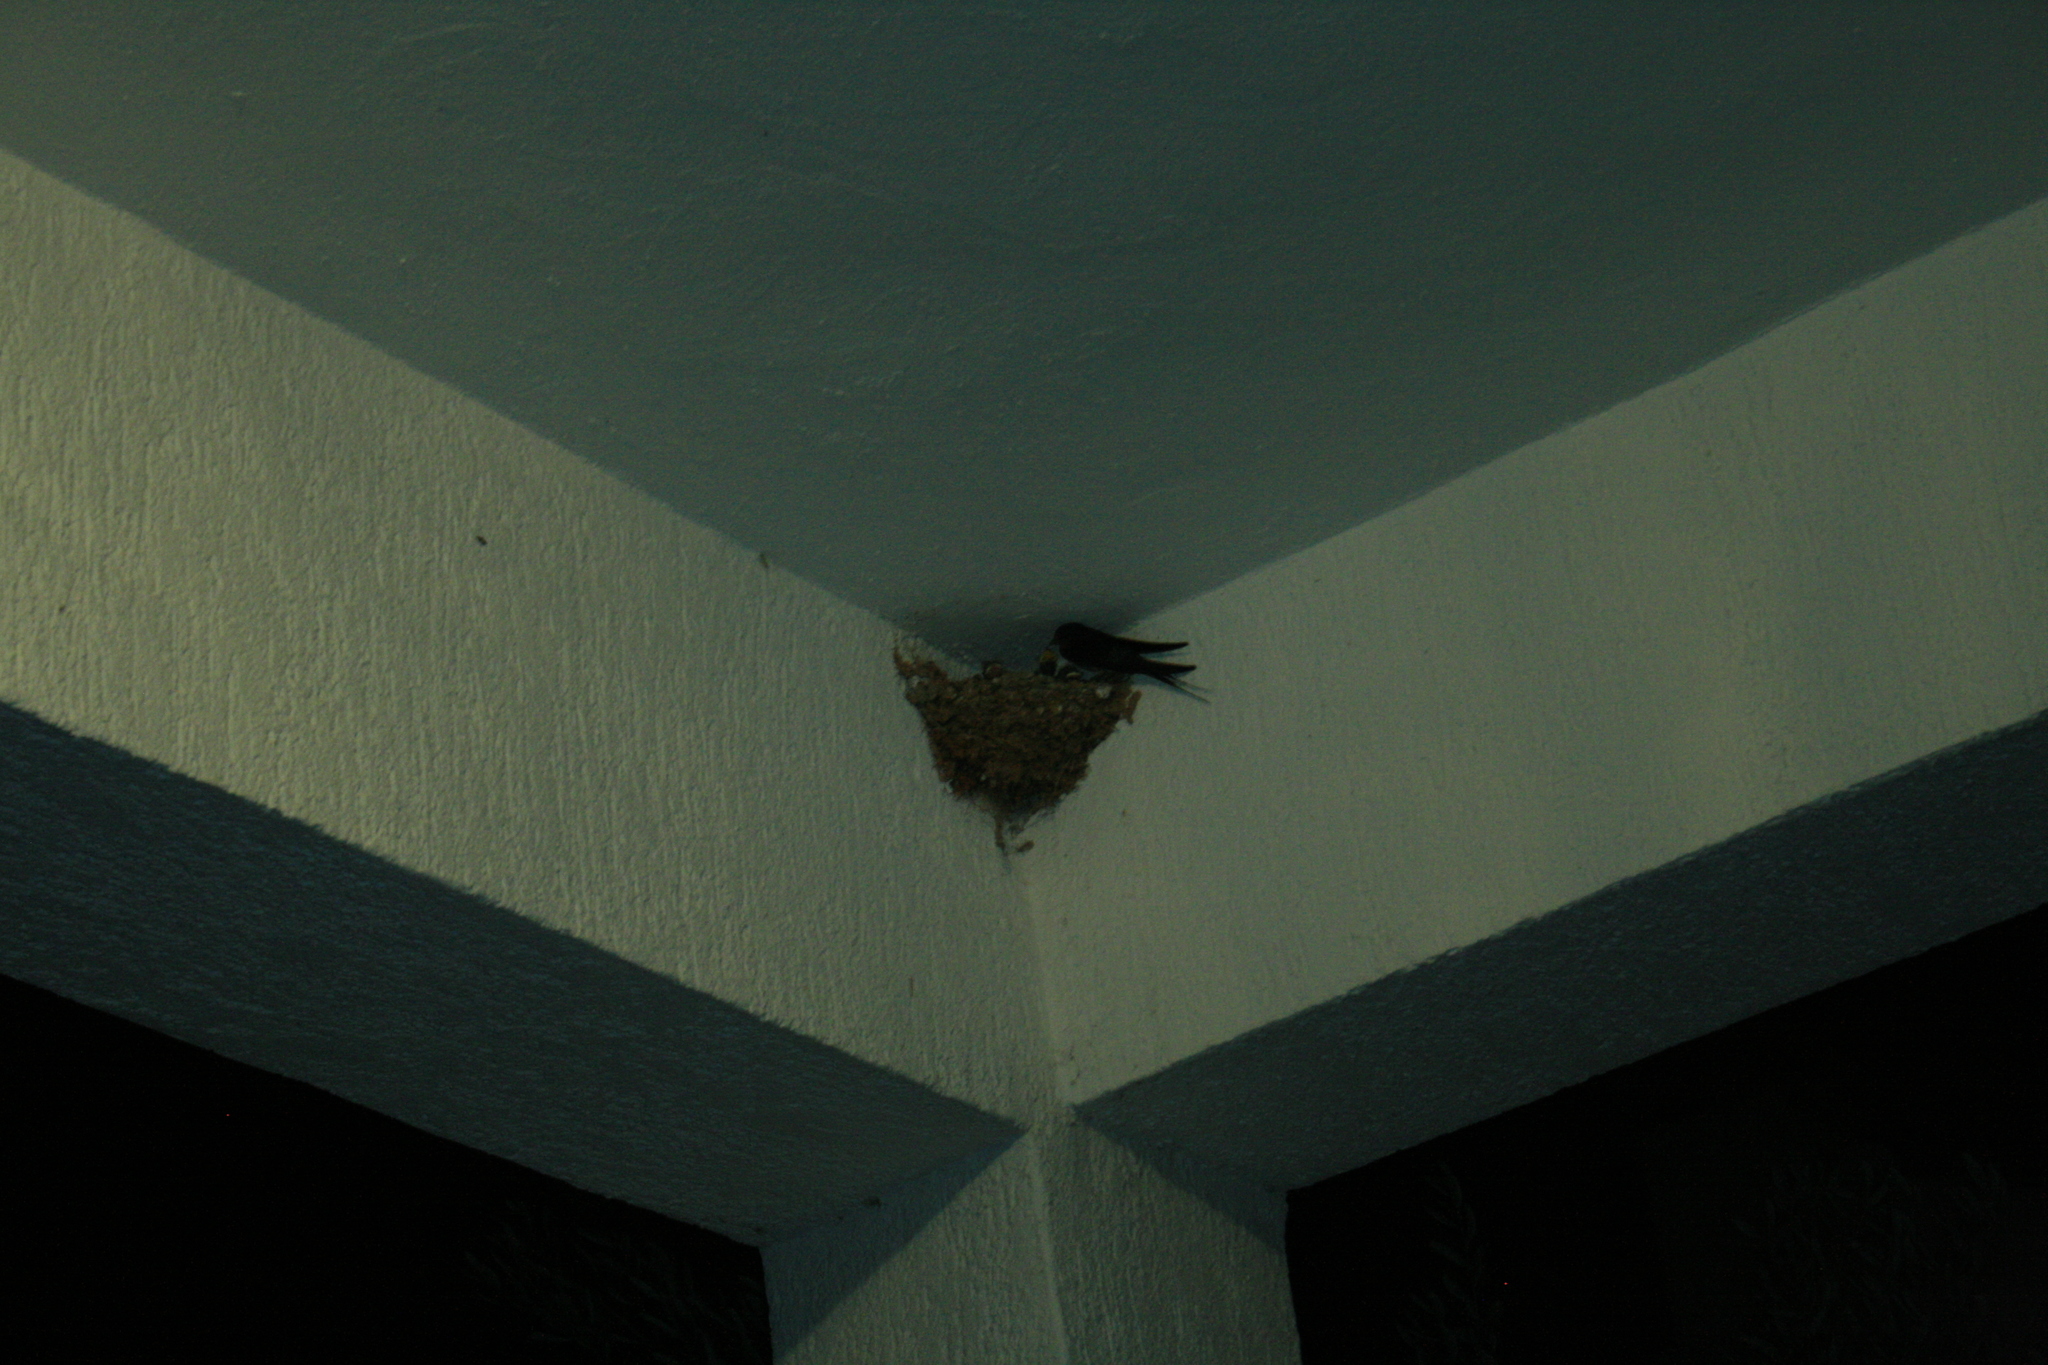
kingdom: Animalia
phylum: Chordata
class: Aves
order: Passeriformes
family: Hirundinidae
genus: Hirundo
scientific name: Hirundo rustica
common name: Barn swallow
